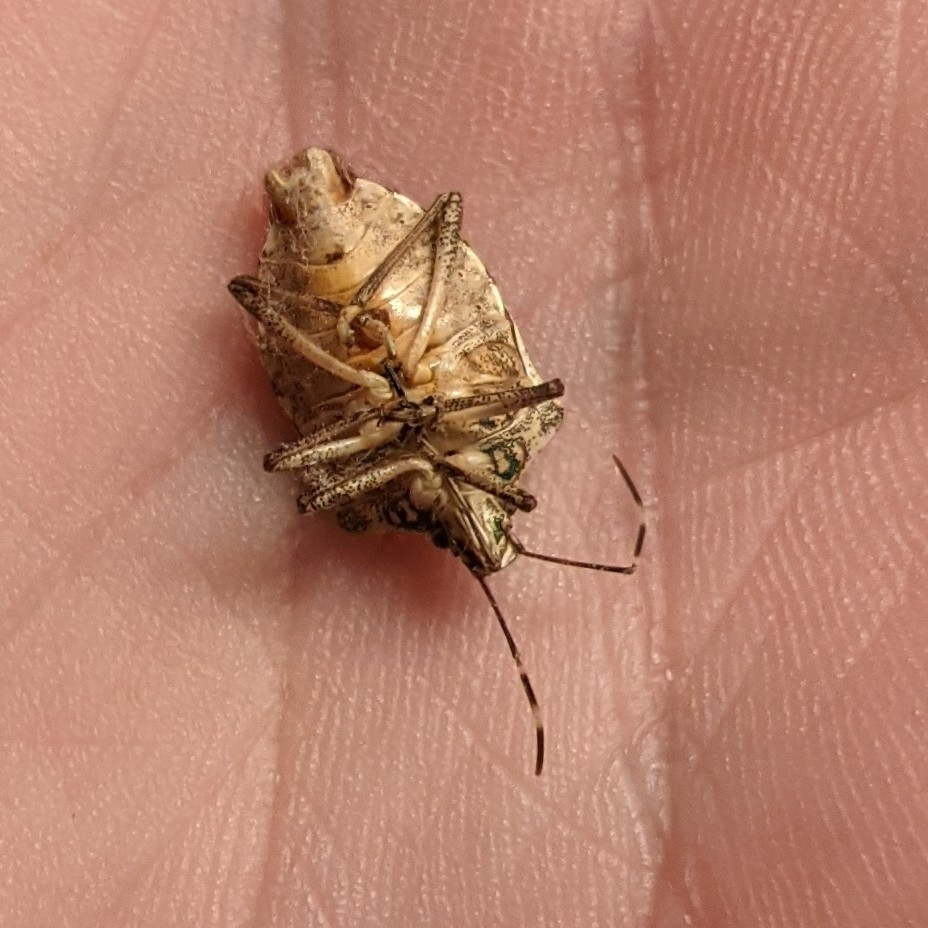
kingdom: Animalia
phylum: Arthropoda
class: Insecta
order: Hemiptera
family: Pentatomidae
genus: Halyomorpha
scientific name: Halyomorpha halys
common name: Brown marmorated stink bug
